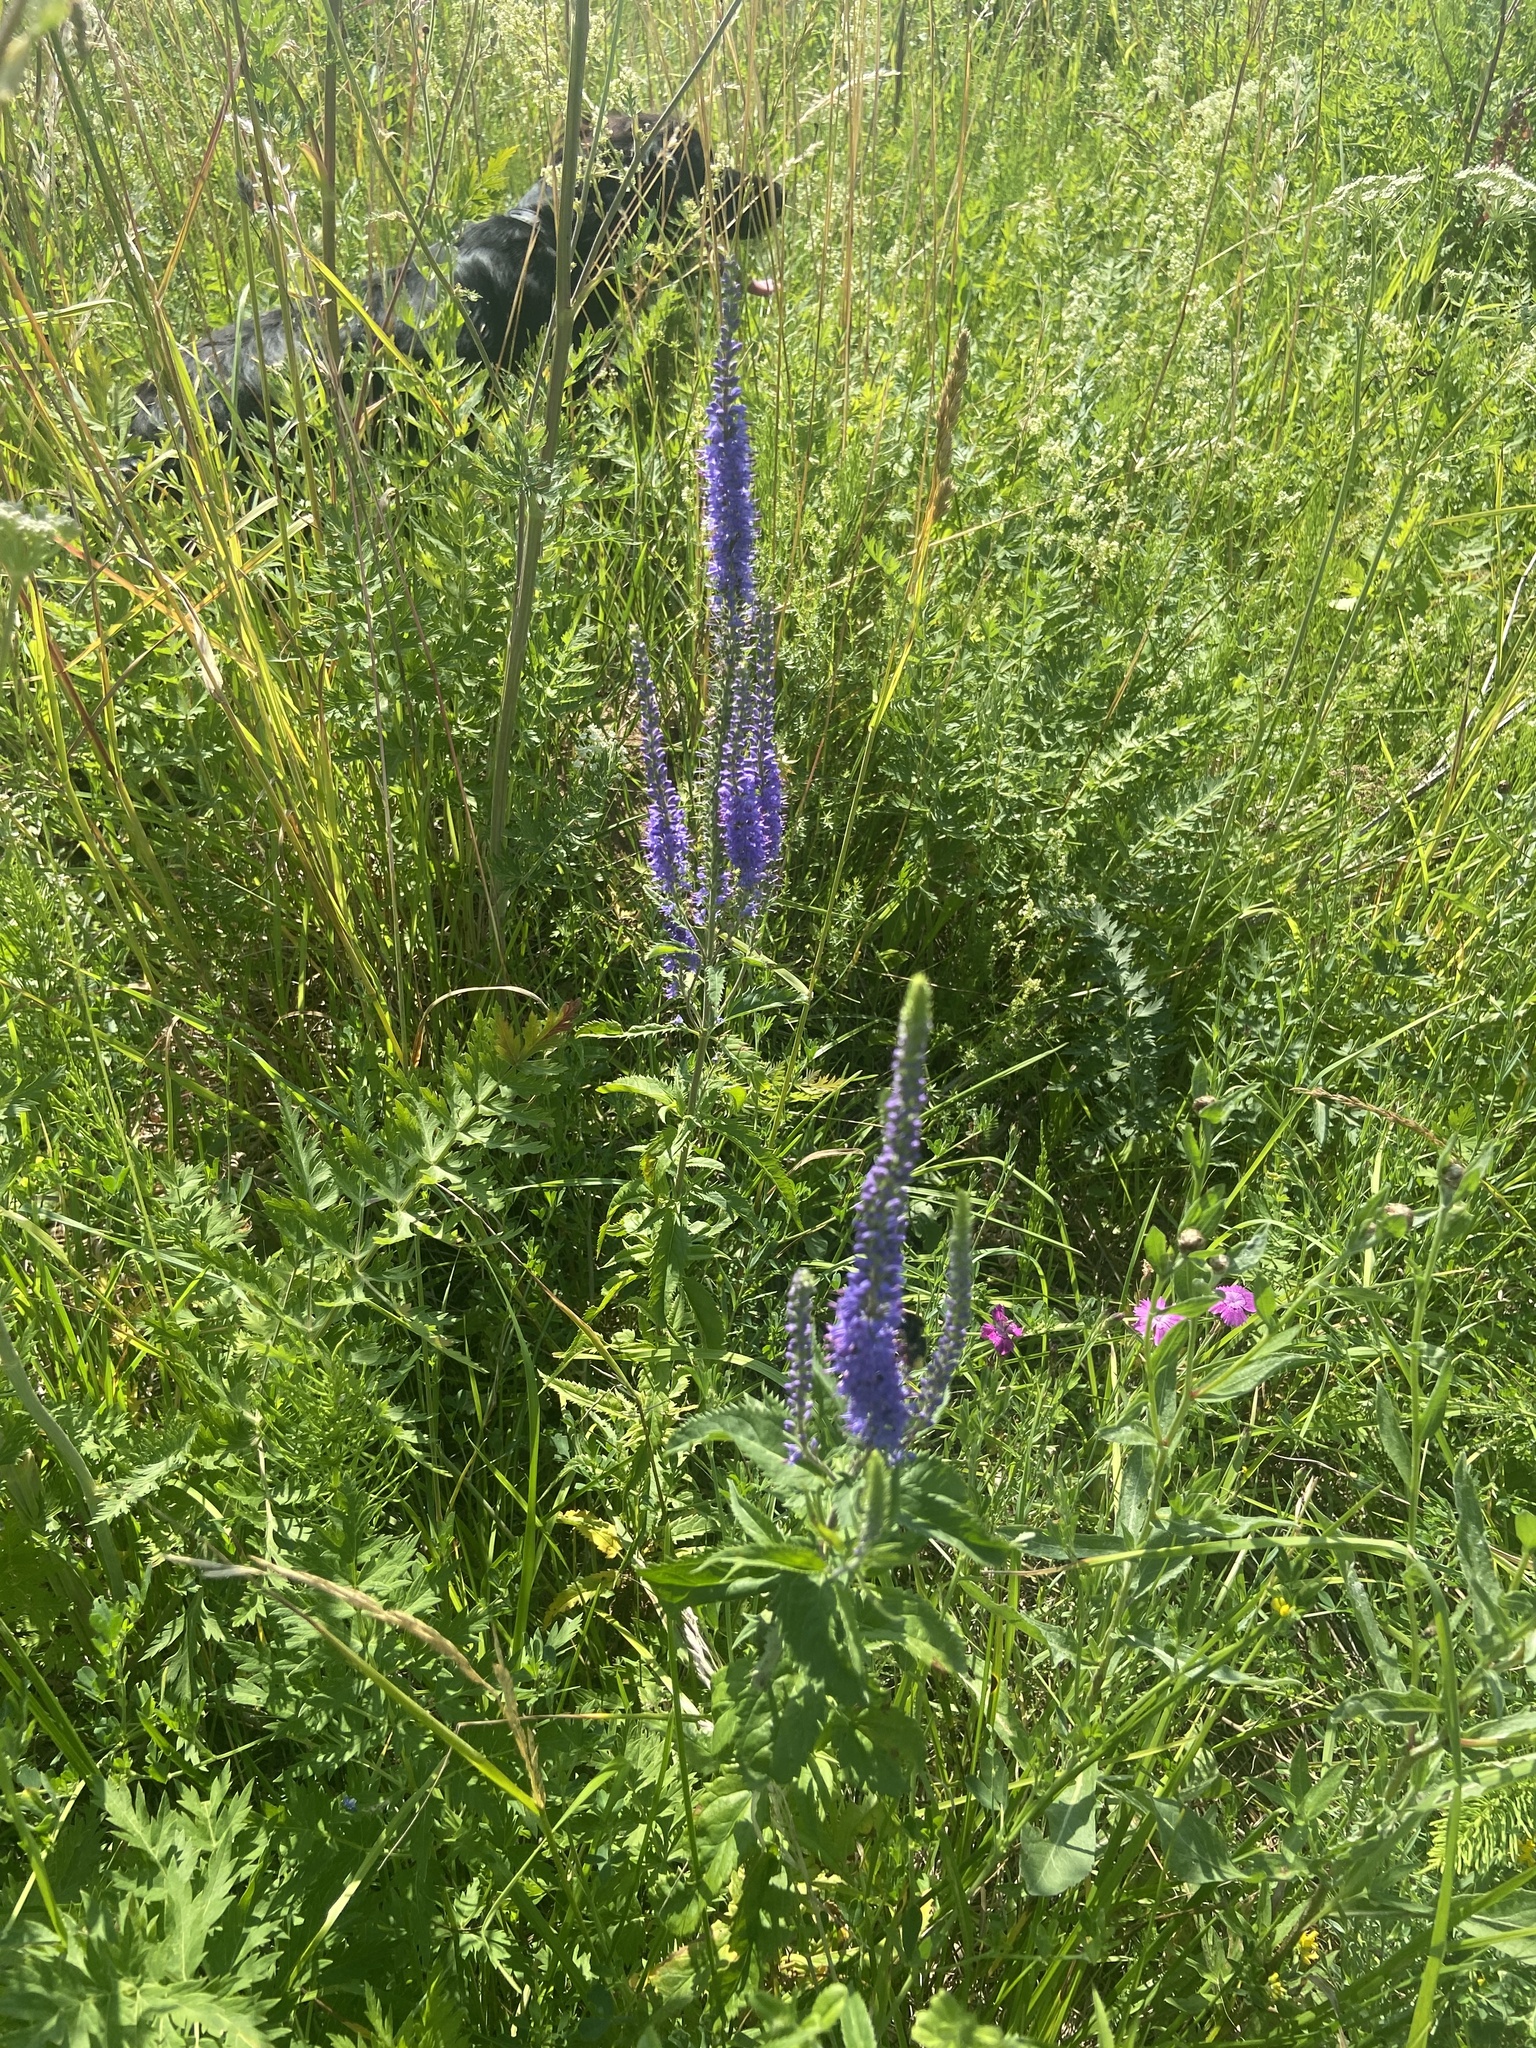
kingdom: Plantae
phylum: Tracheophyta
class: Magnoliopsida
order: Lamiales
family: Plantaginaceae
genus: Veronica
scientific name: Veronica longifolia
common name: Garden speedwell
